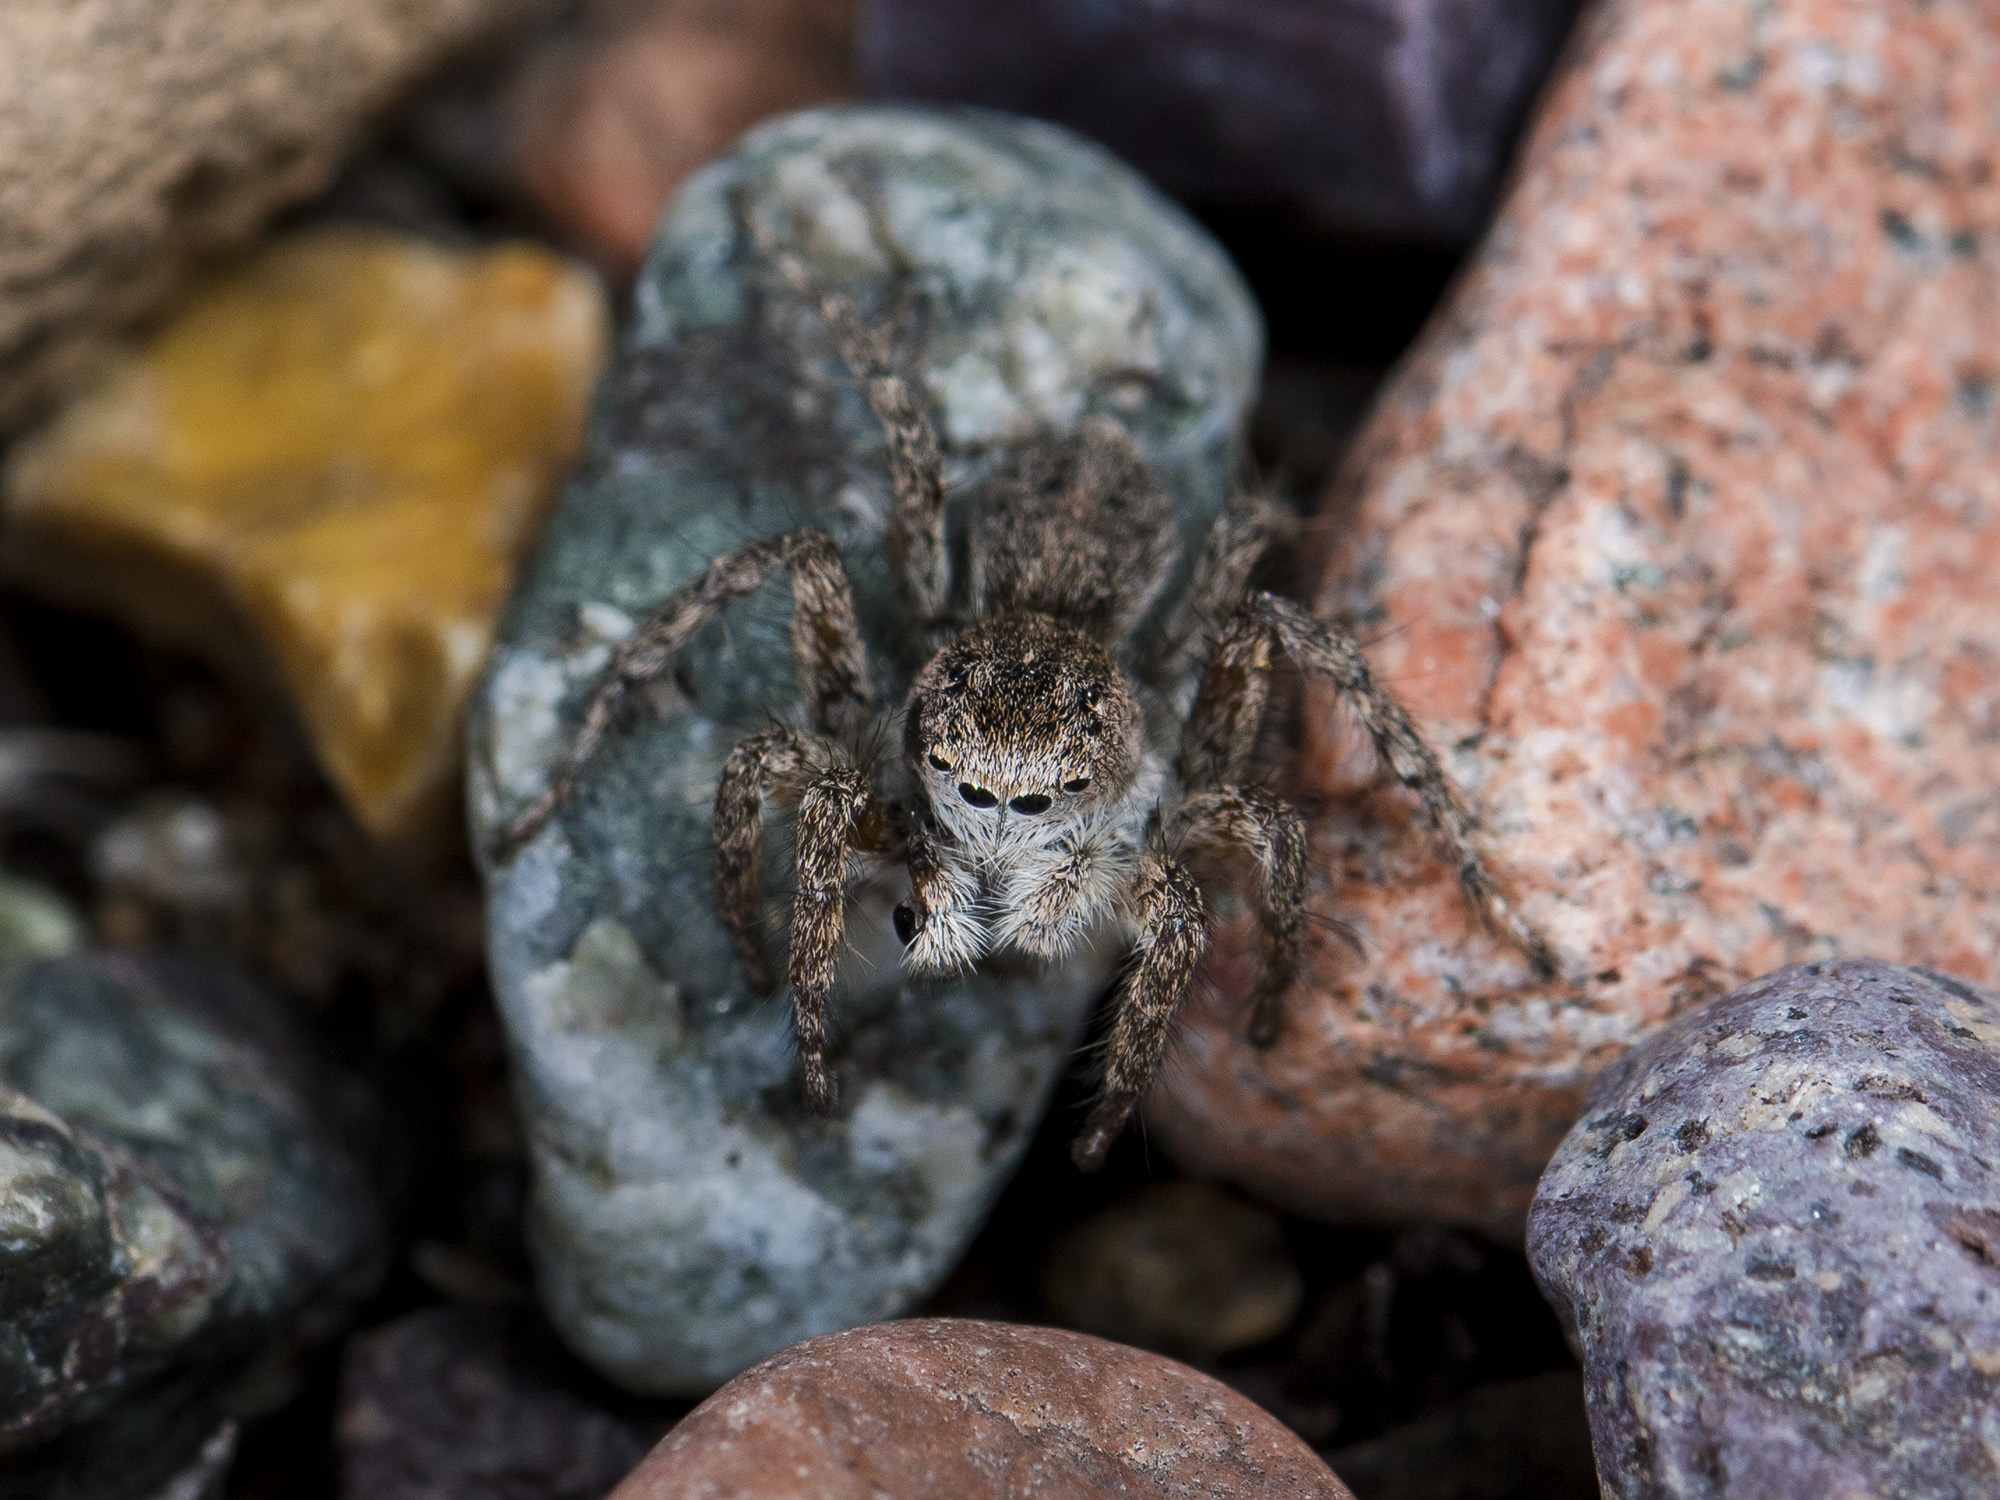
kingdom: Animalia
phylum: Arthropoda
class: Arachnida
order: Araneae
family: Salticidae
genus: Aelurillus
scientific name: Aelurillus dubatolovi
